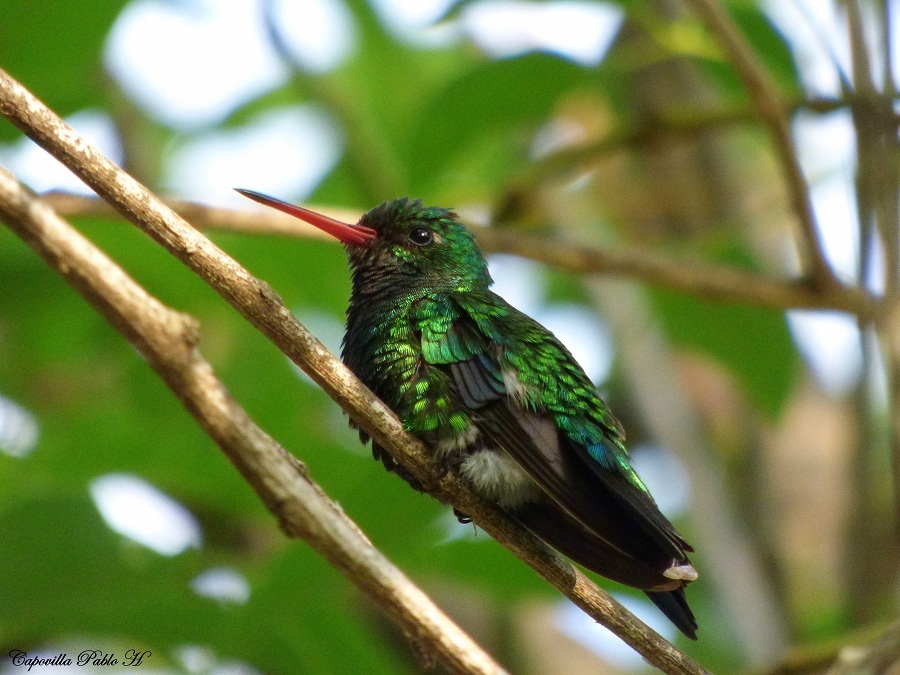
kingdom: Animalia
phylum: Chordata
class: Aves
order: Apodiformes
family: Trochilidae
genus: Chlorostilbon
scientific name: Chlorostilbon lucidus
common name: Glittering-bellied emerald
